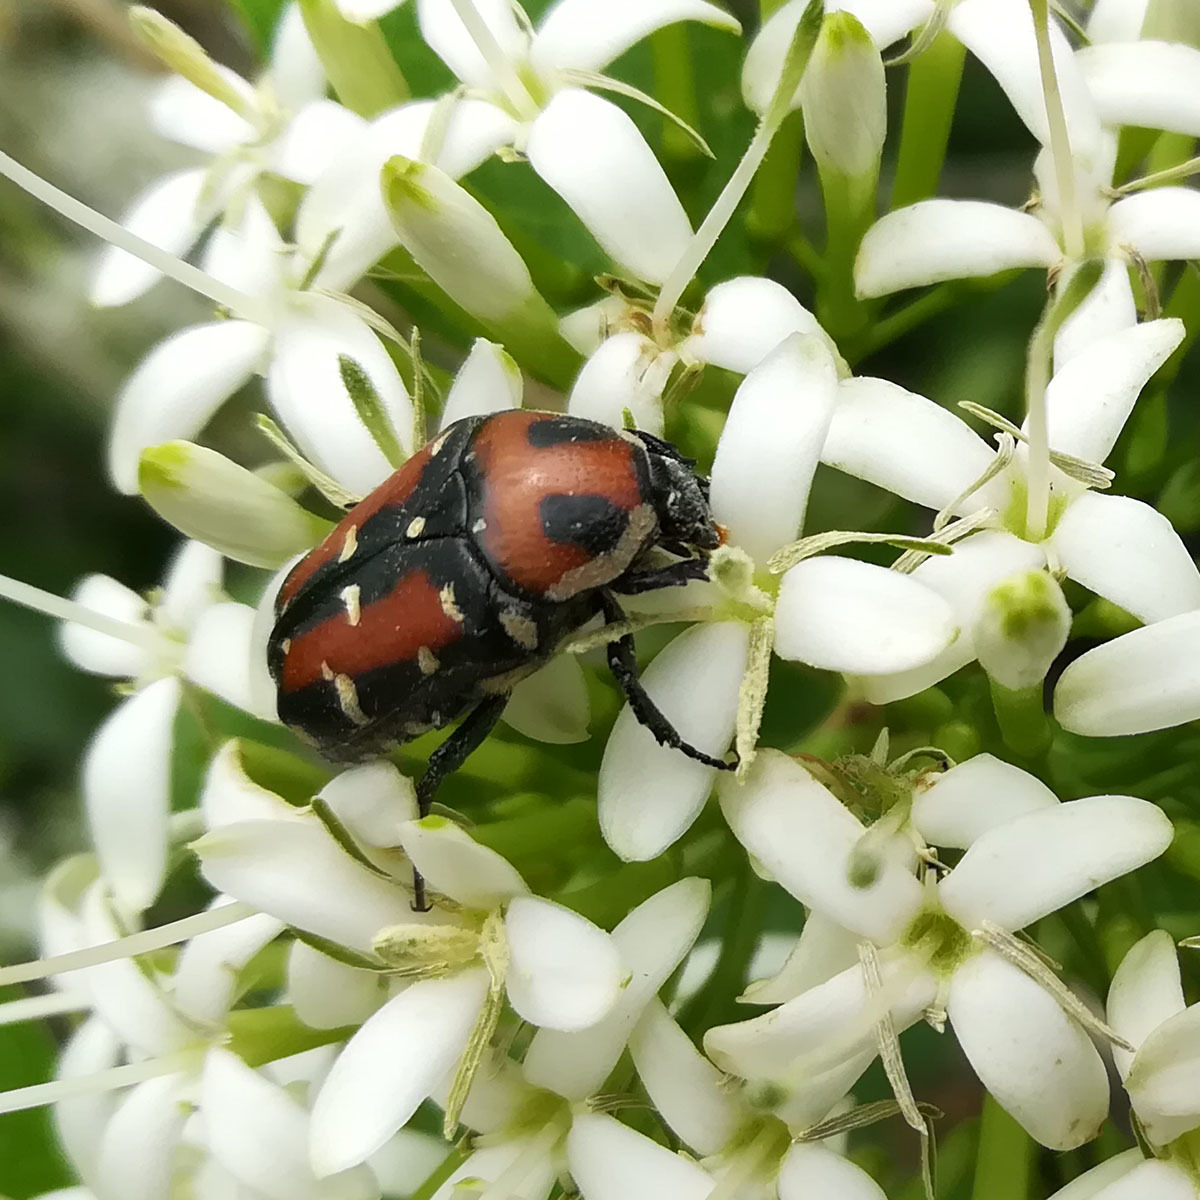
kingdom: Animalia
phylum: Arthropoda
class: Insecta
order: Coleoptera
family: Scarabaeidae
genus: Gametis
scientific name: Gametis versicolor
